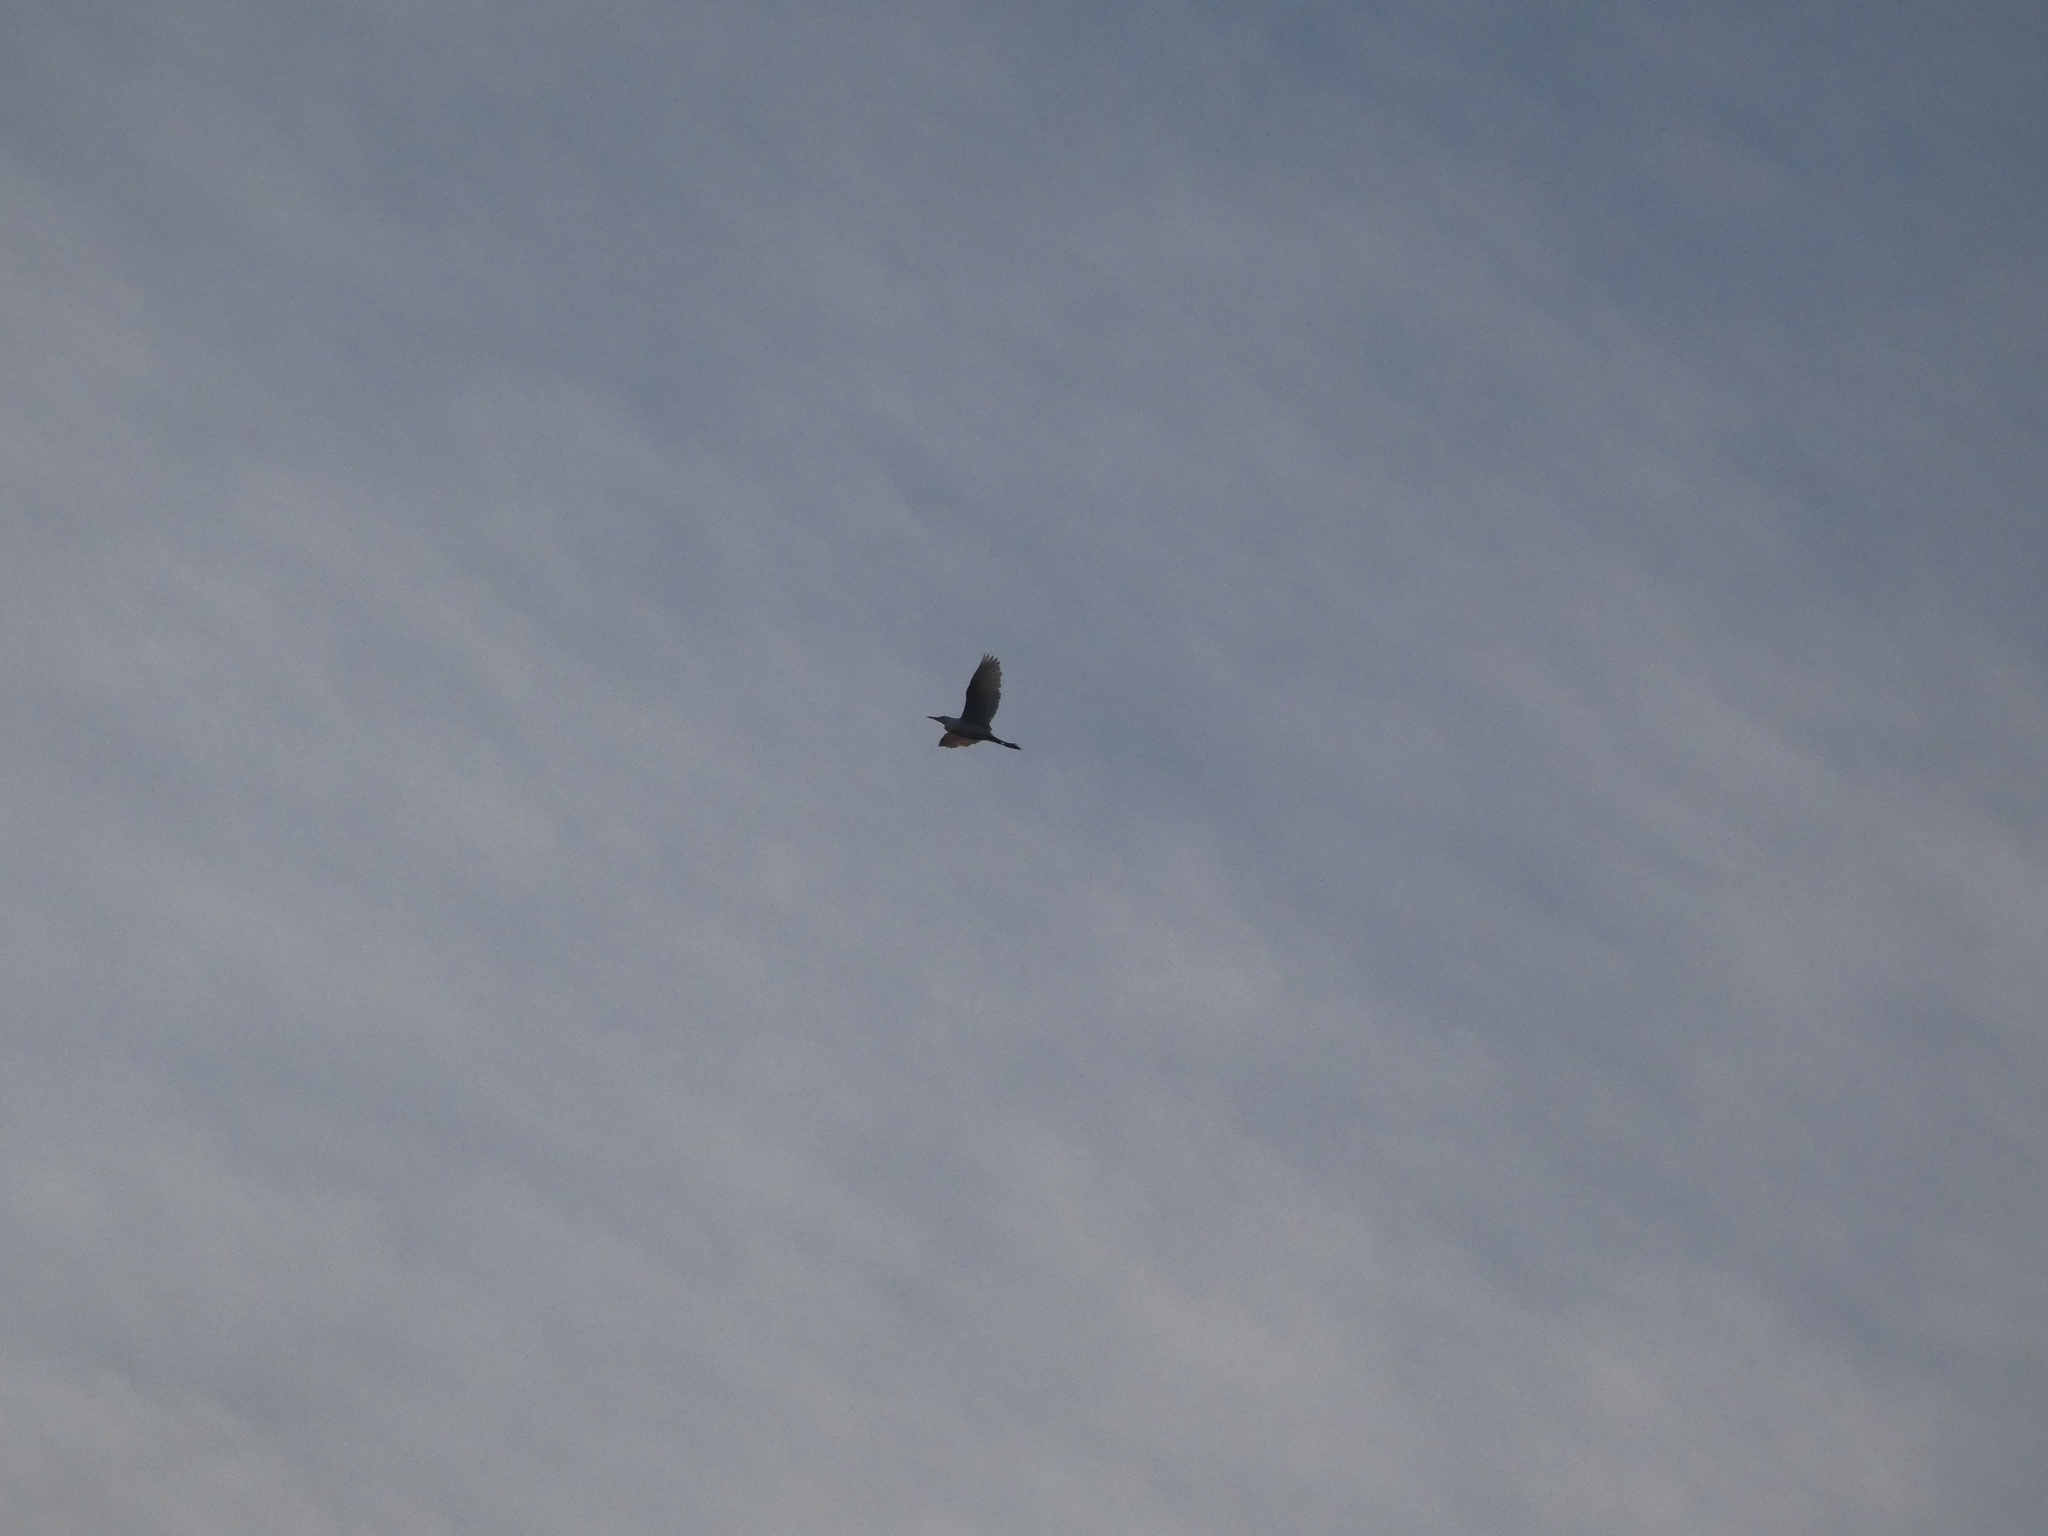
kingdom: Animalia
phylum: Chordata
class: Aves
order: Pelecaniformes
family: Ardeidae
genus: Bubulcus
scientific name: Bubulcus ibis
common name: Cattle egret
